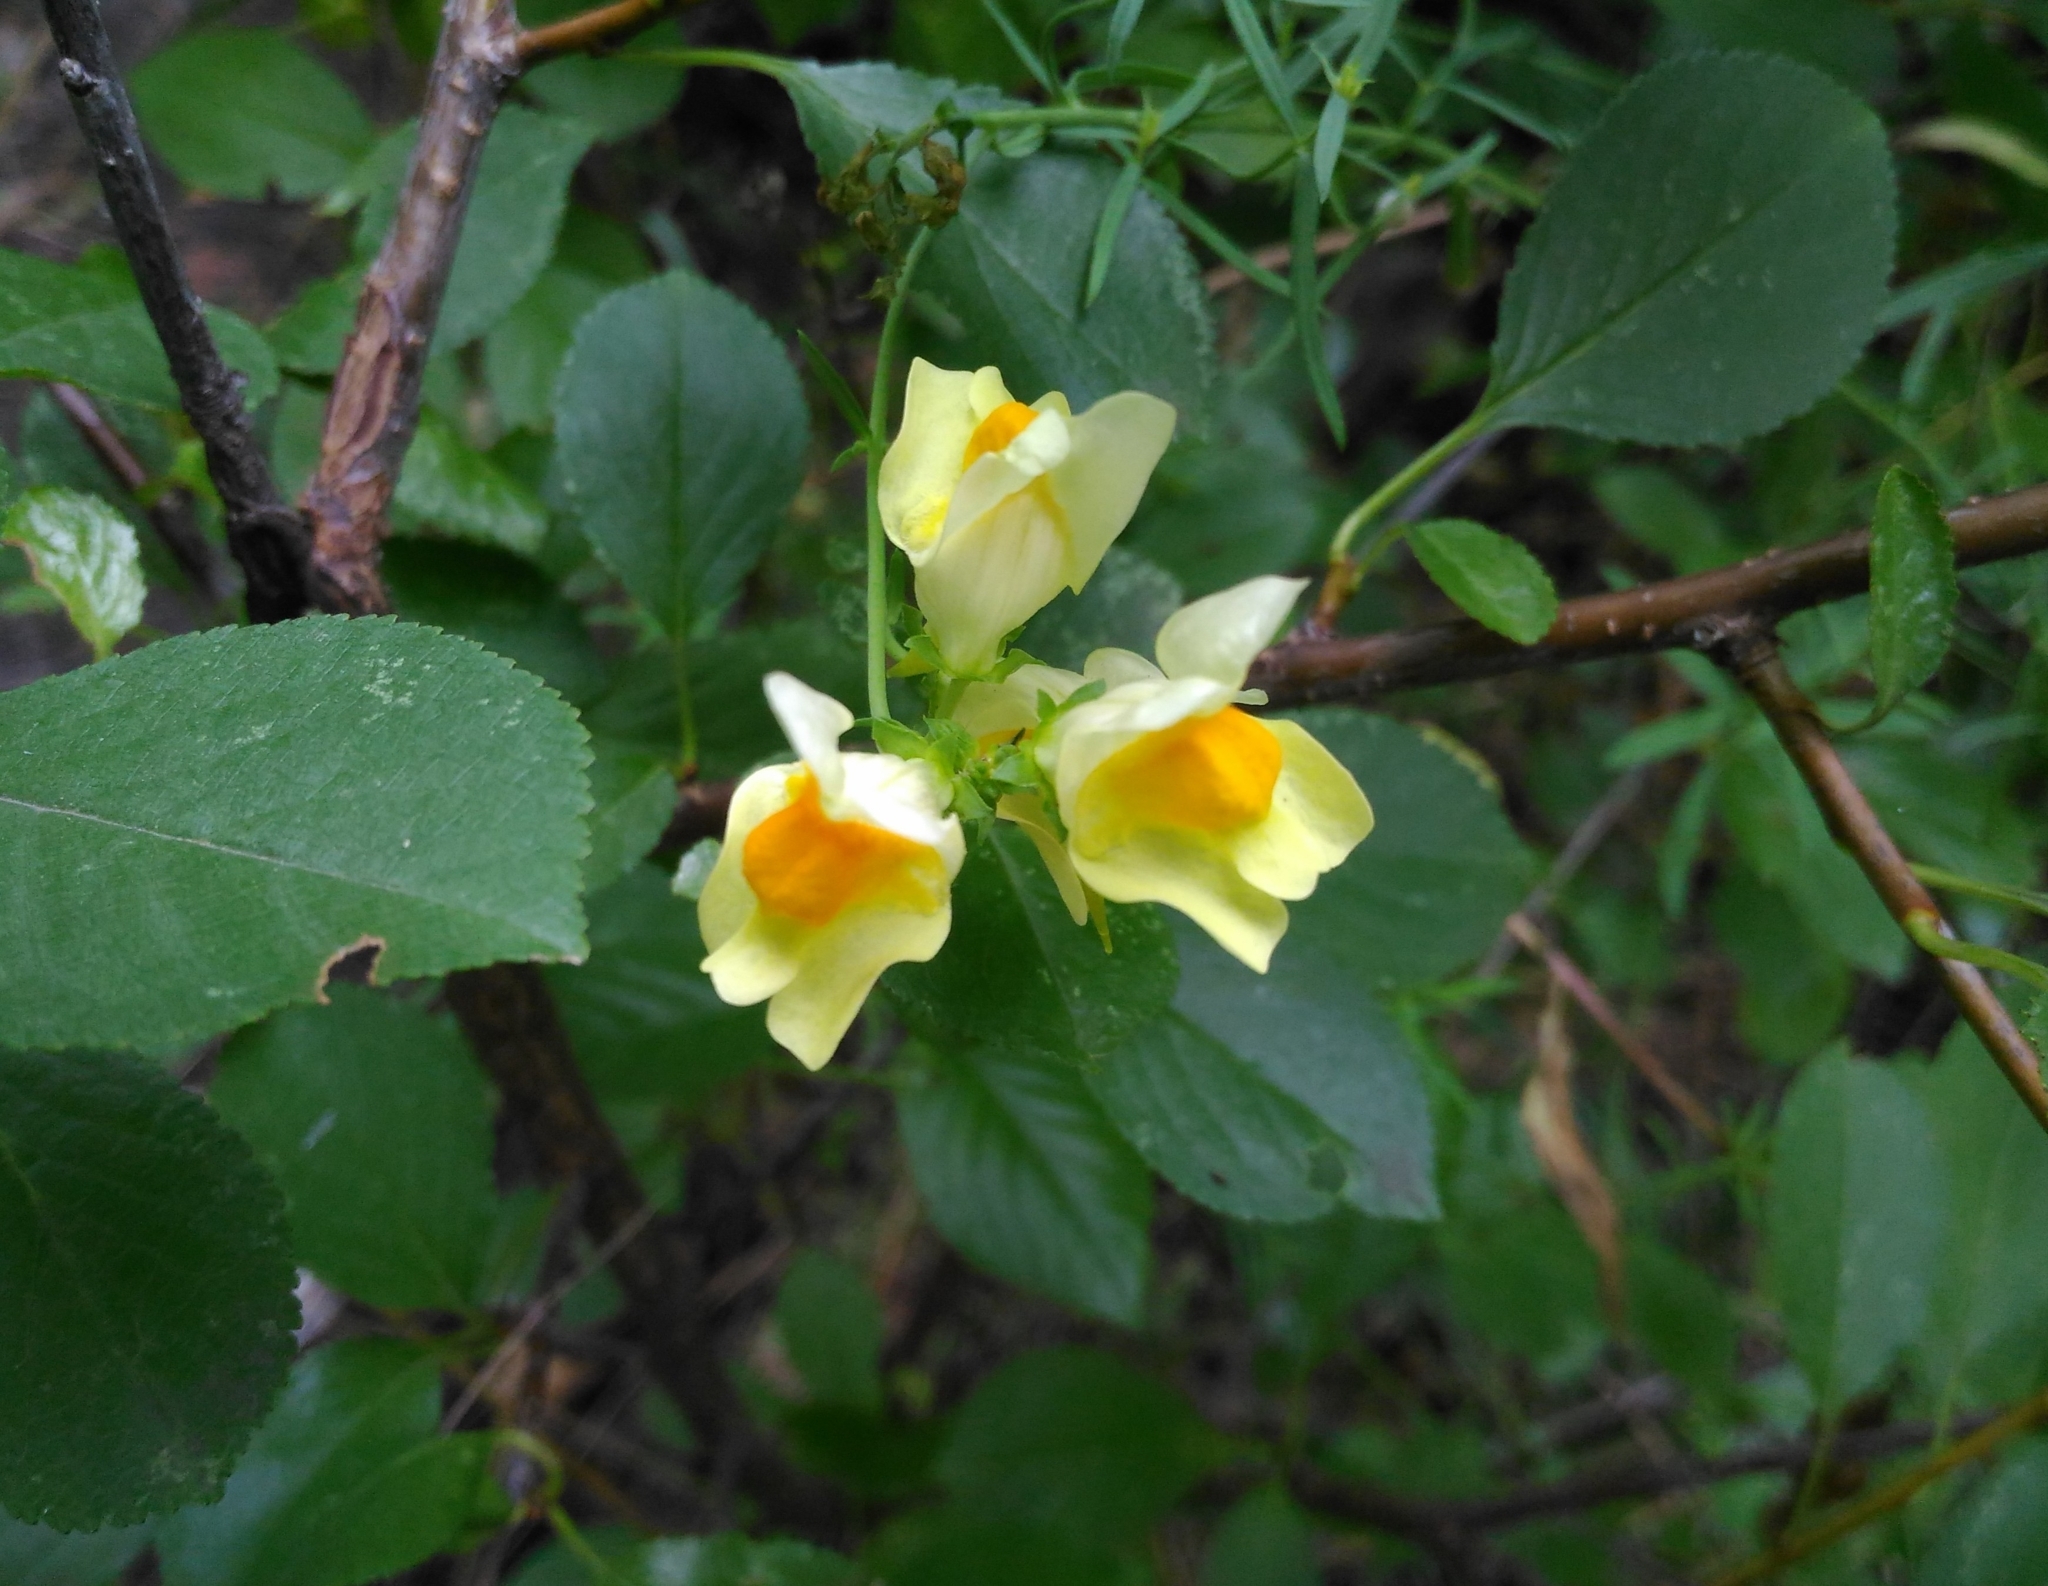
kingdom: Plantae
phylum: Tracheophyta
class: Magnoliopsida
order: Lamiales
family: Plantaginaceae
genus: Linaria
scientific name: Linaria vulgaris
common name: Butter and eggs
